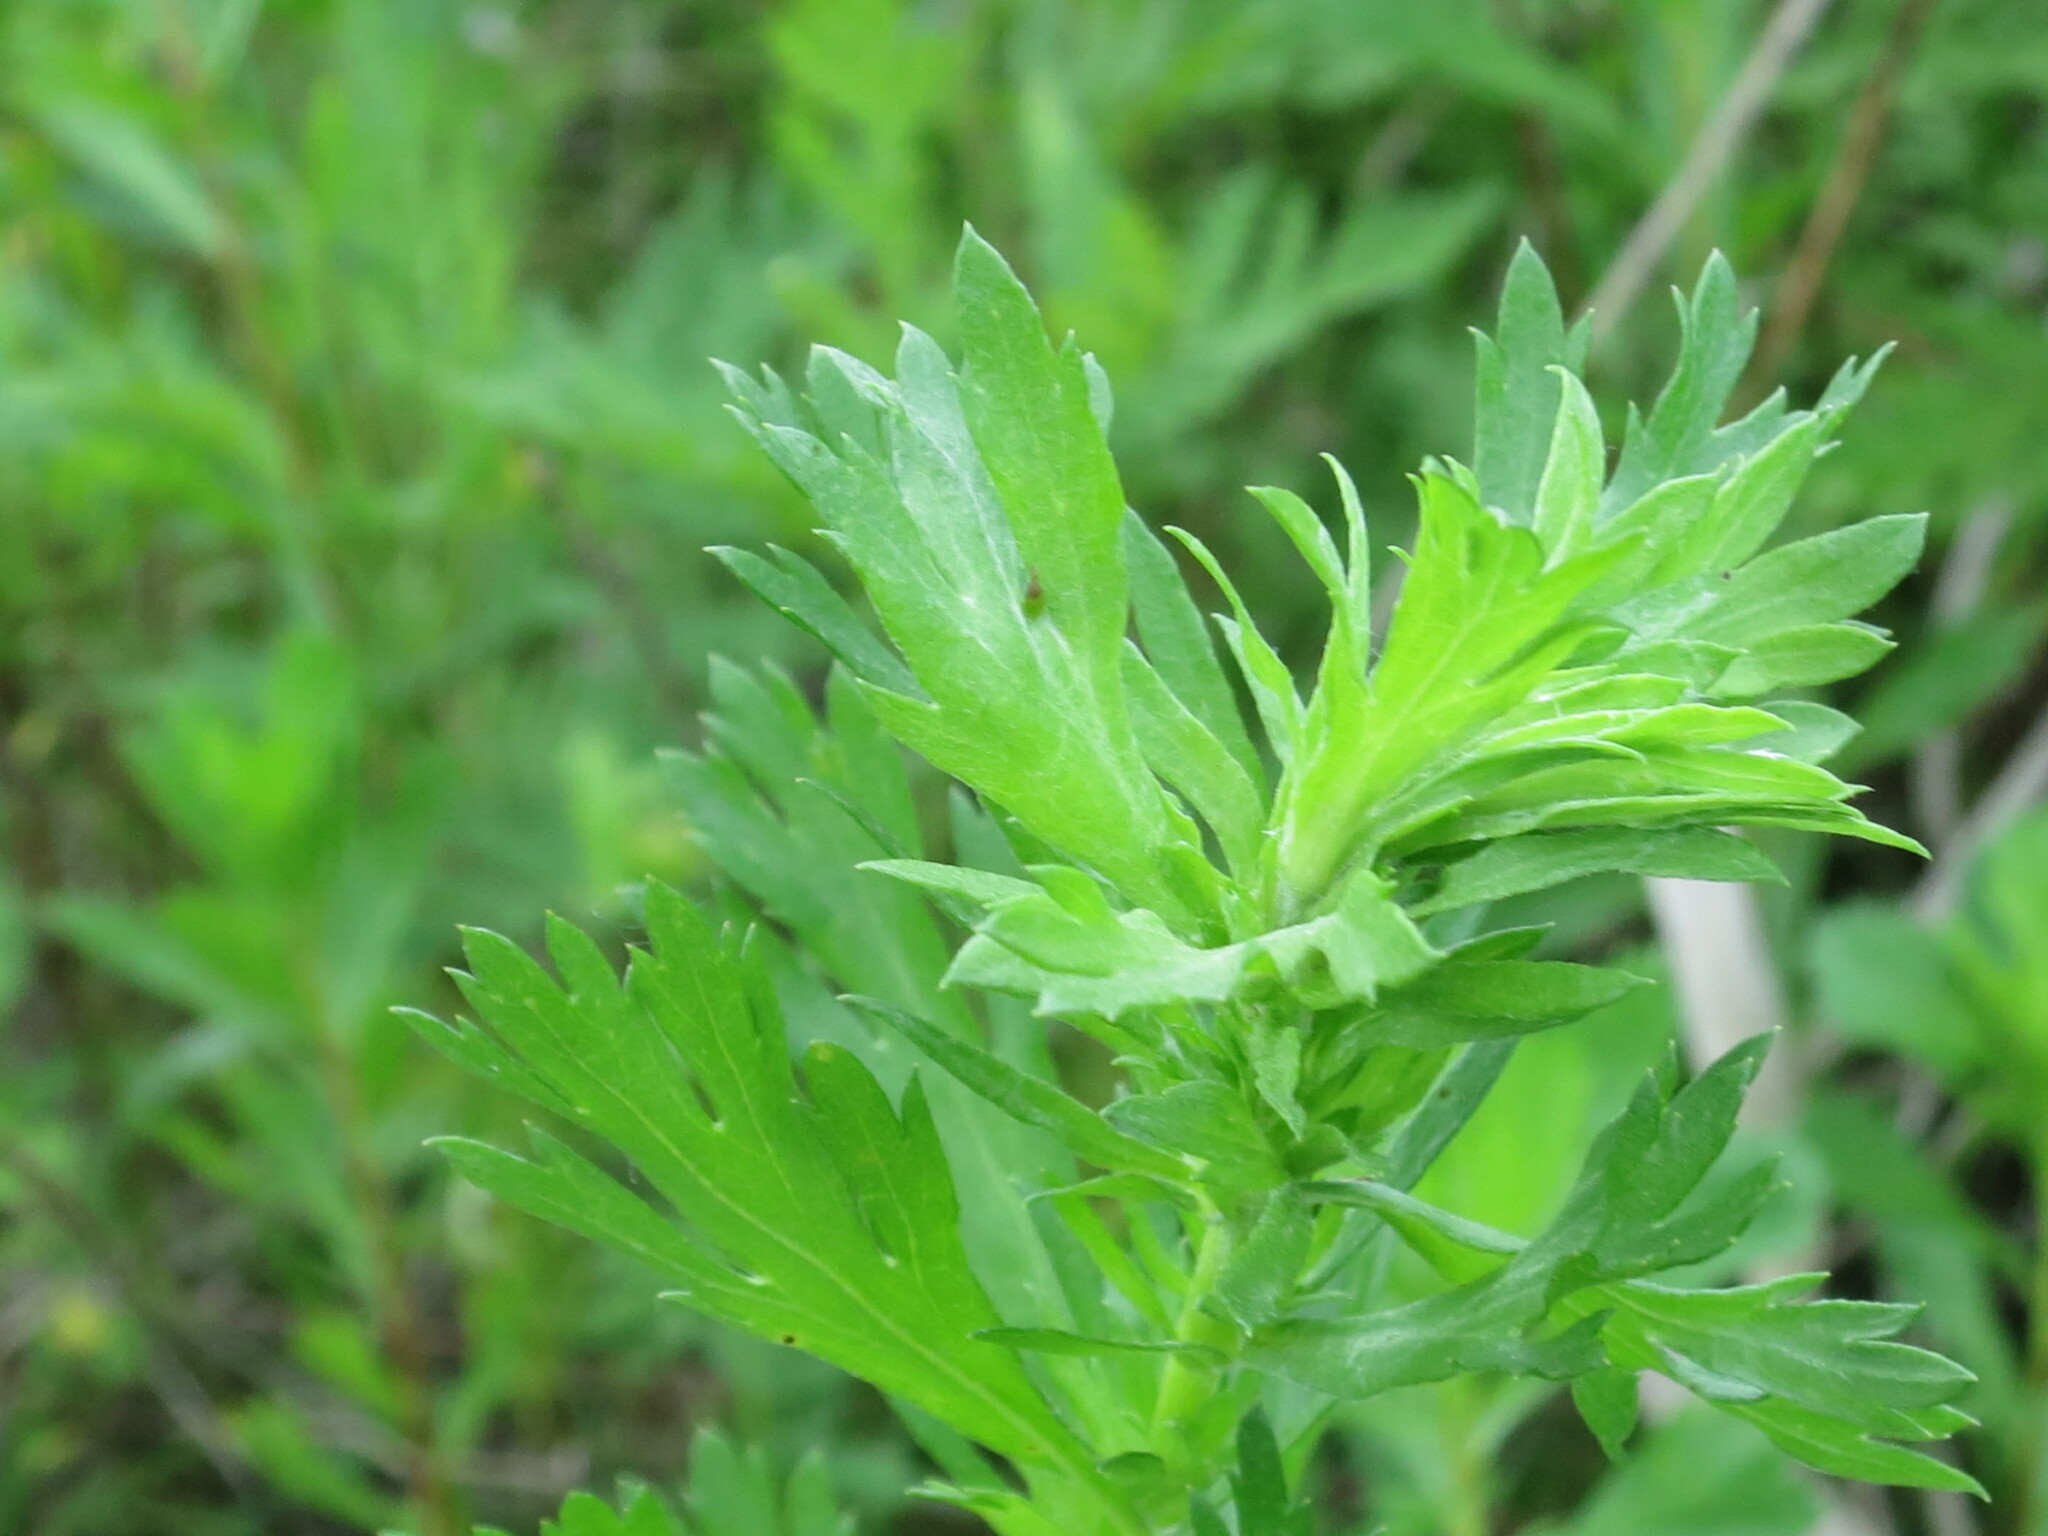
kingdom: Plantae
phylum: Tracheophyta
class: Magnoliopsida
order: Asterales
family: Asteraceae
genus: Artemisia
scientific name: Artemisia manshurica
